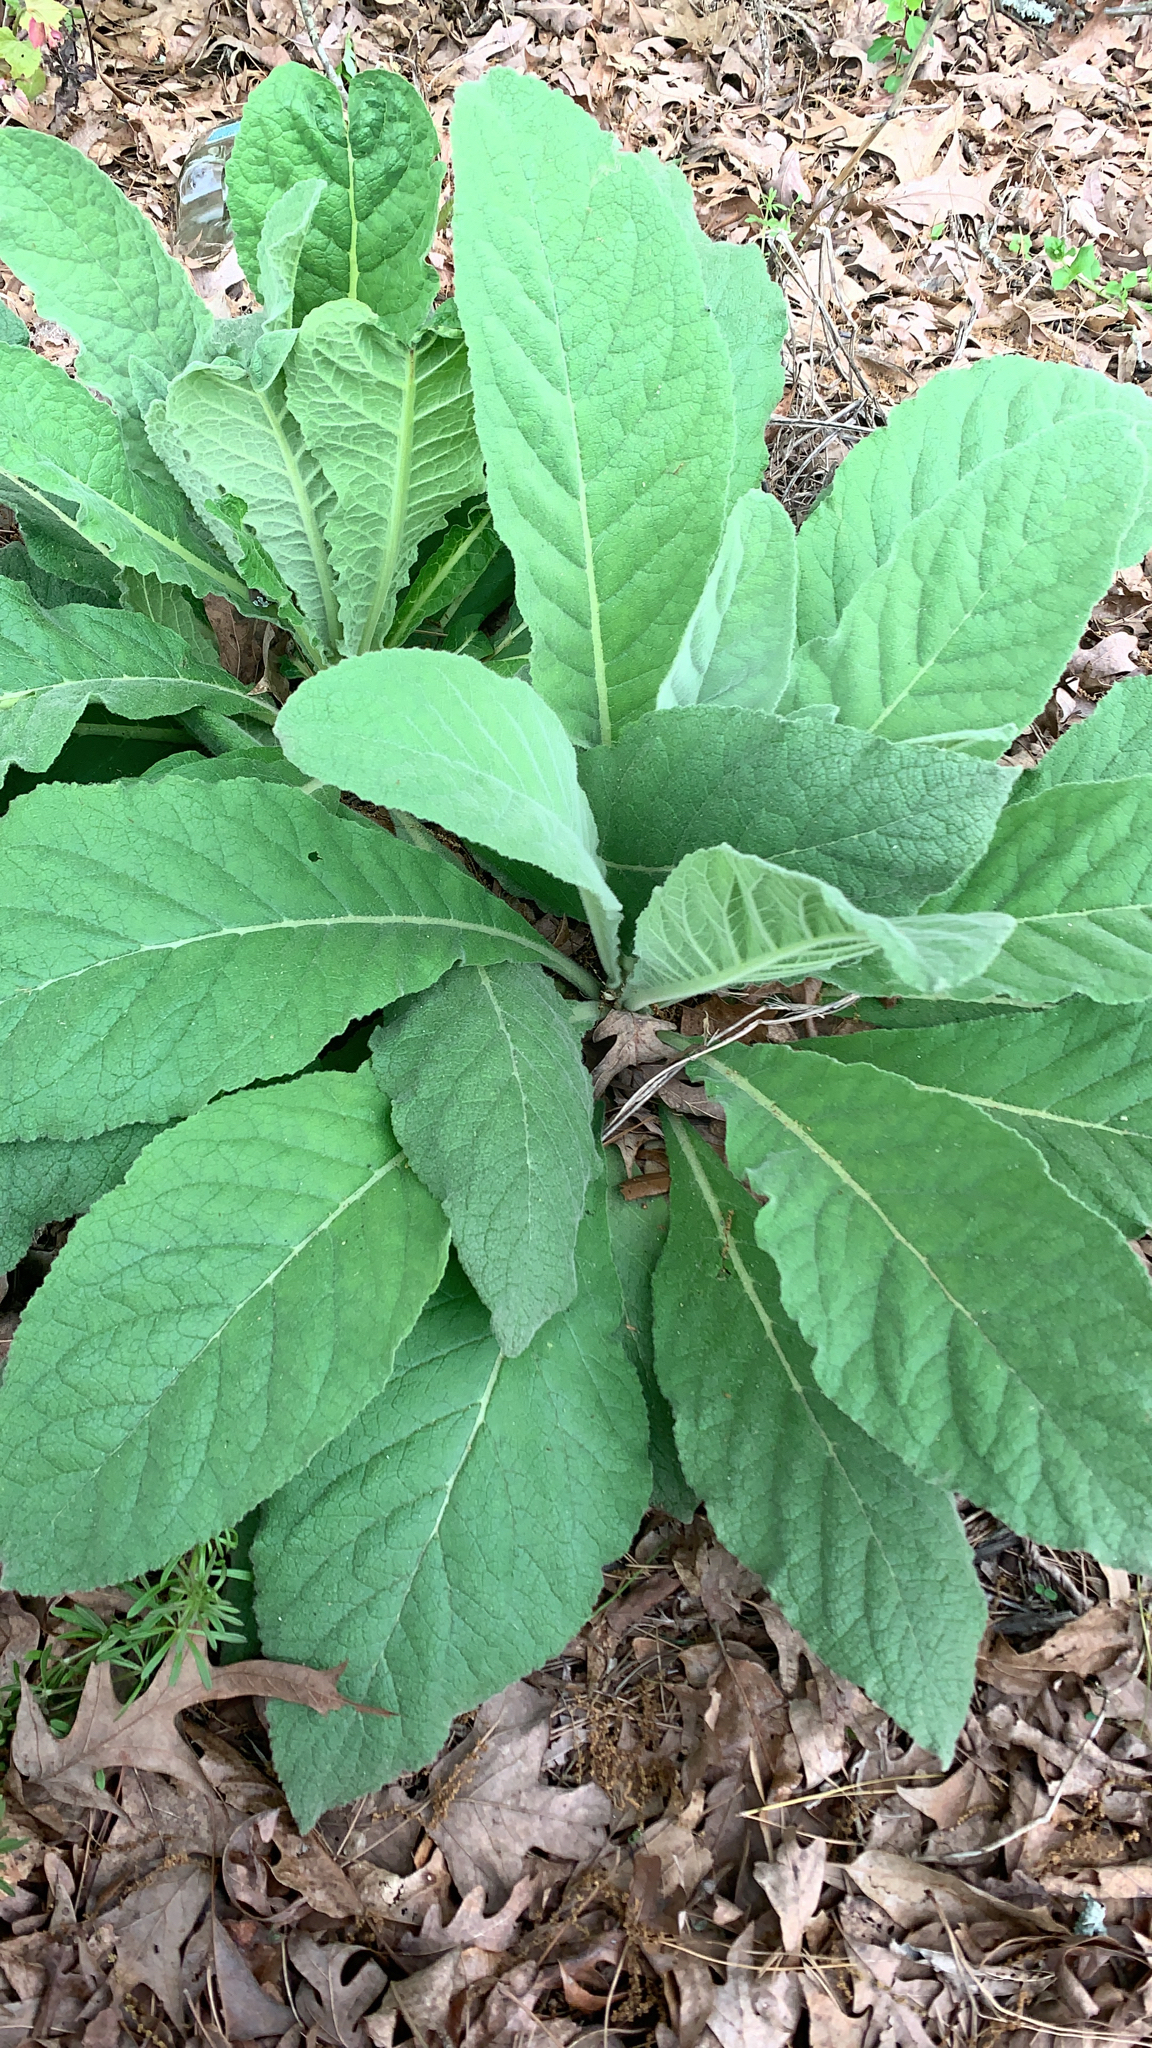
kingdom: Plantae
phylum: Tracheophyta
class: Magnoliopsida
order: Lamiales
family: Scrophulariaceae
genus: Verbascum
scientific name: Verbascum thapsus
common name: Common mullein
